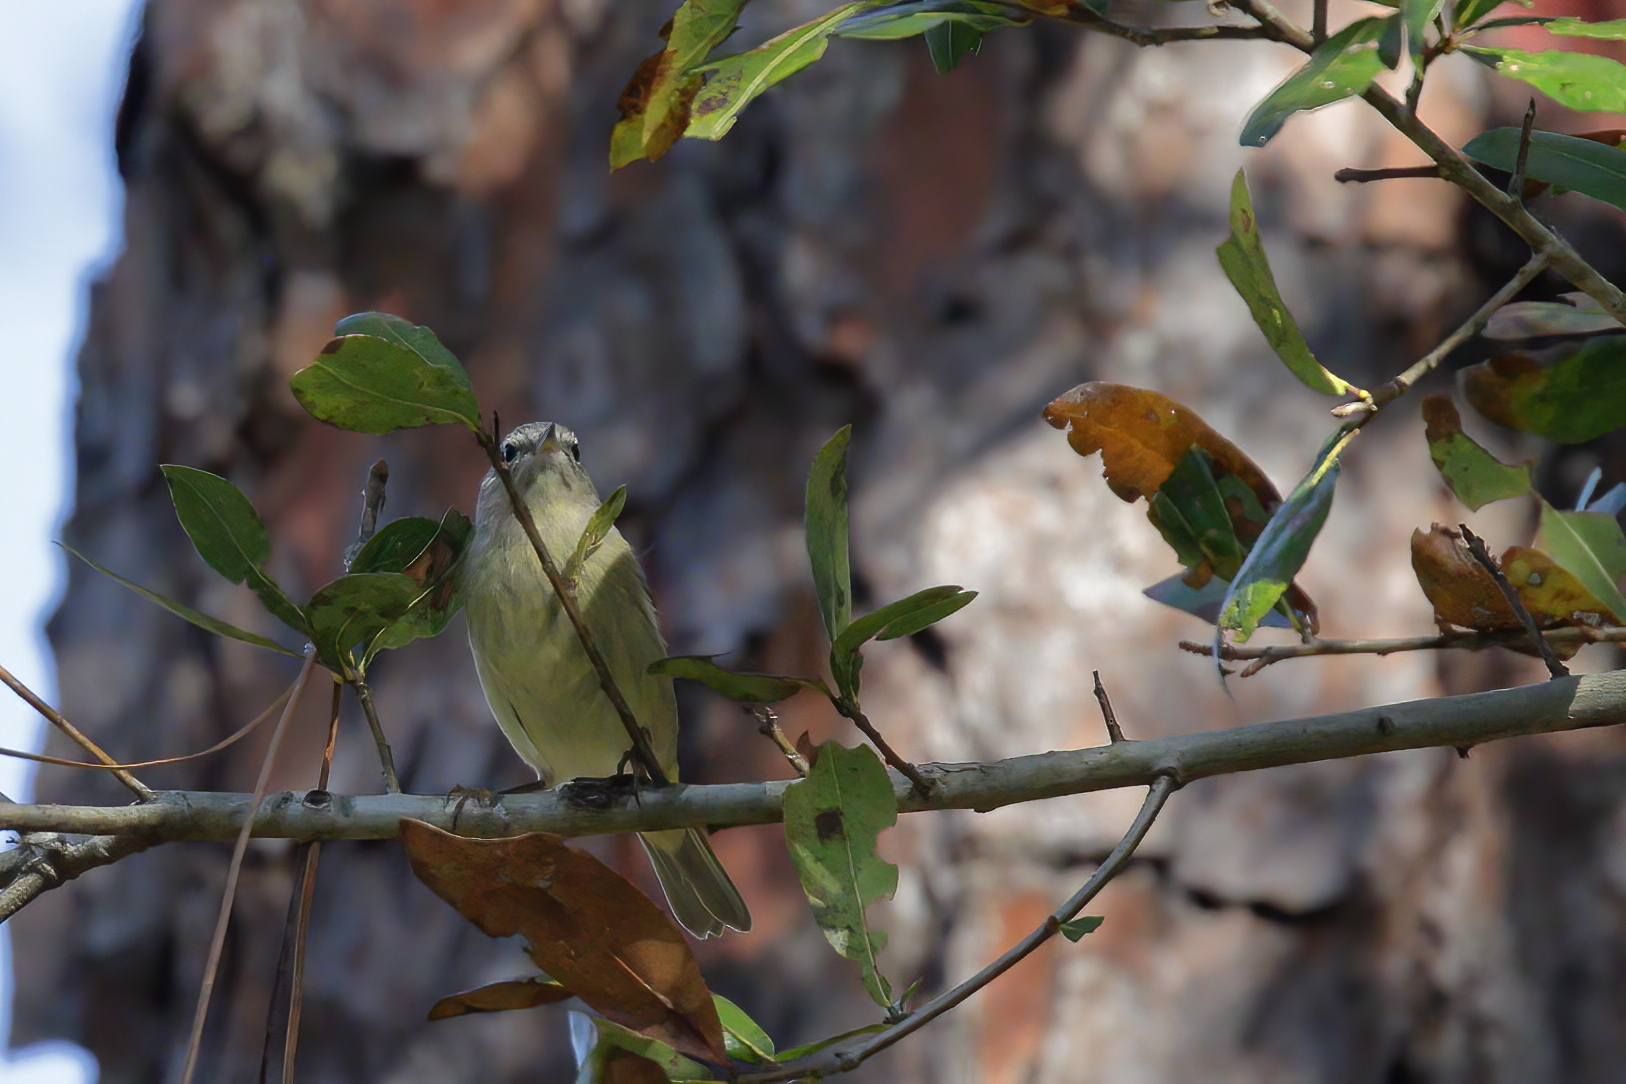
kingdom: Animalia
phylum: Chordata
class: Aves
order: Passeriformes
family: Parulidae
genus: Leiothlypis
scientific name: Leiothlypis celata
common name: Orange-crowned warbler
